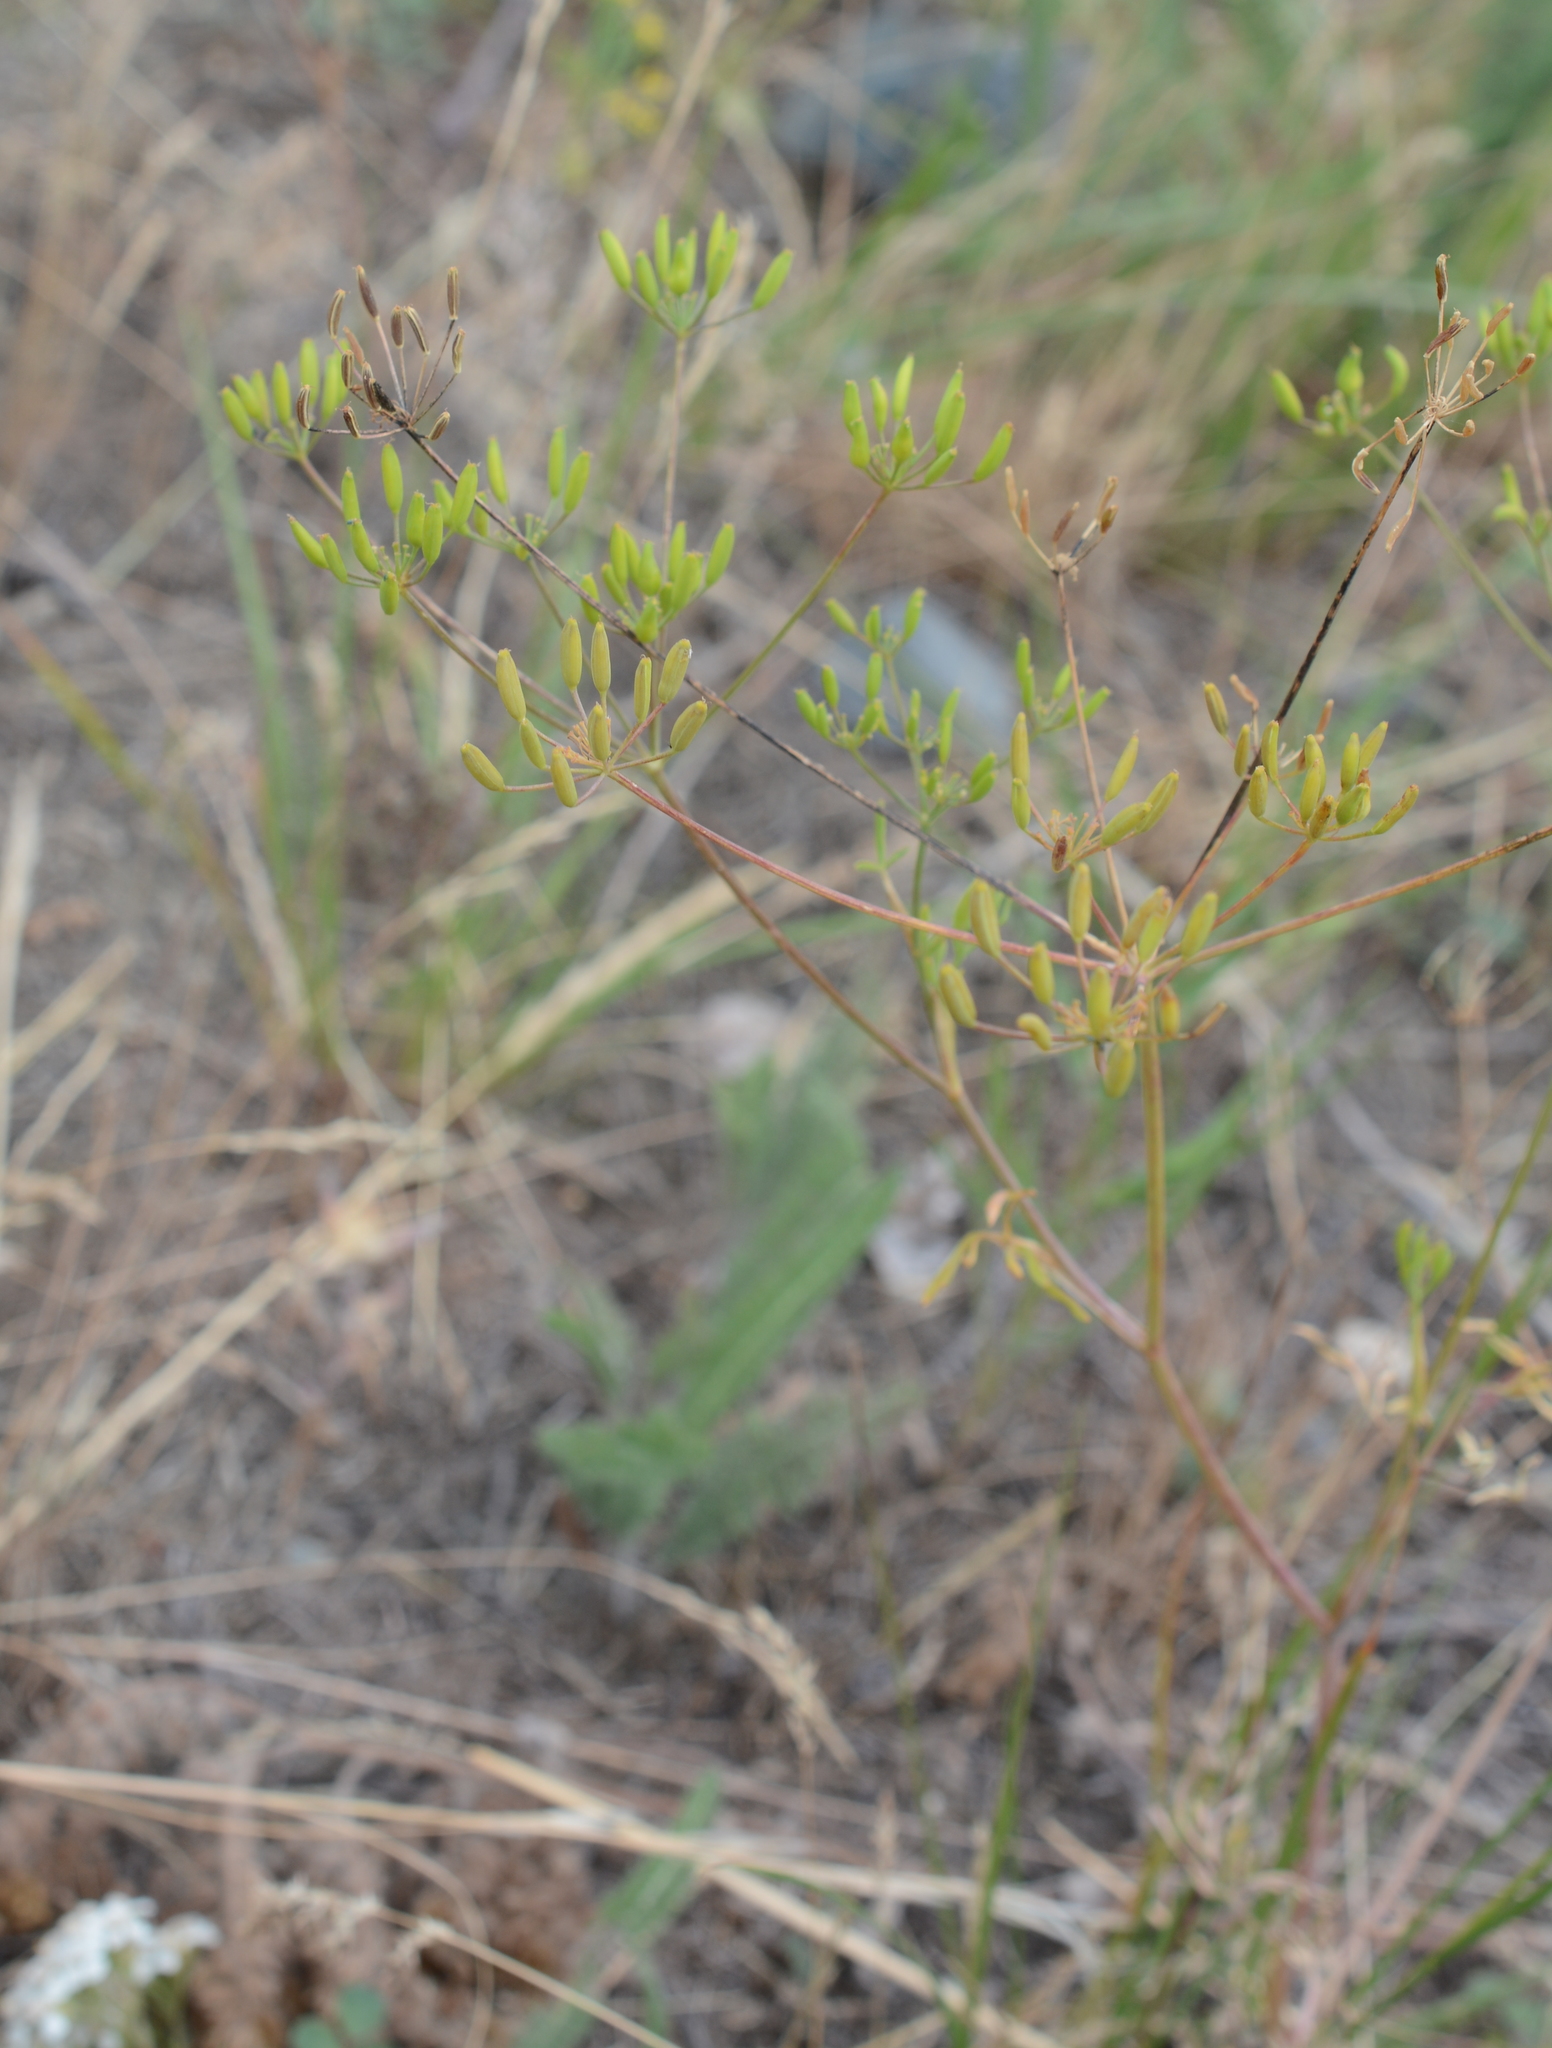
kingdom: Plantae
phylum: Tracheophyta
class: Magnoliopsida
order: Apiales
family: Apiaceae
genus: Lomatium
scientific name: Lomatium ambiguum
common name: Lacy lomatium
